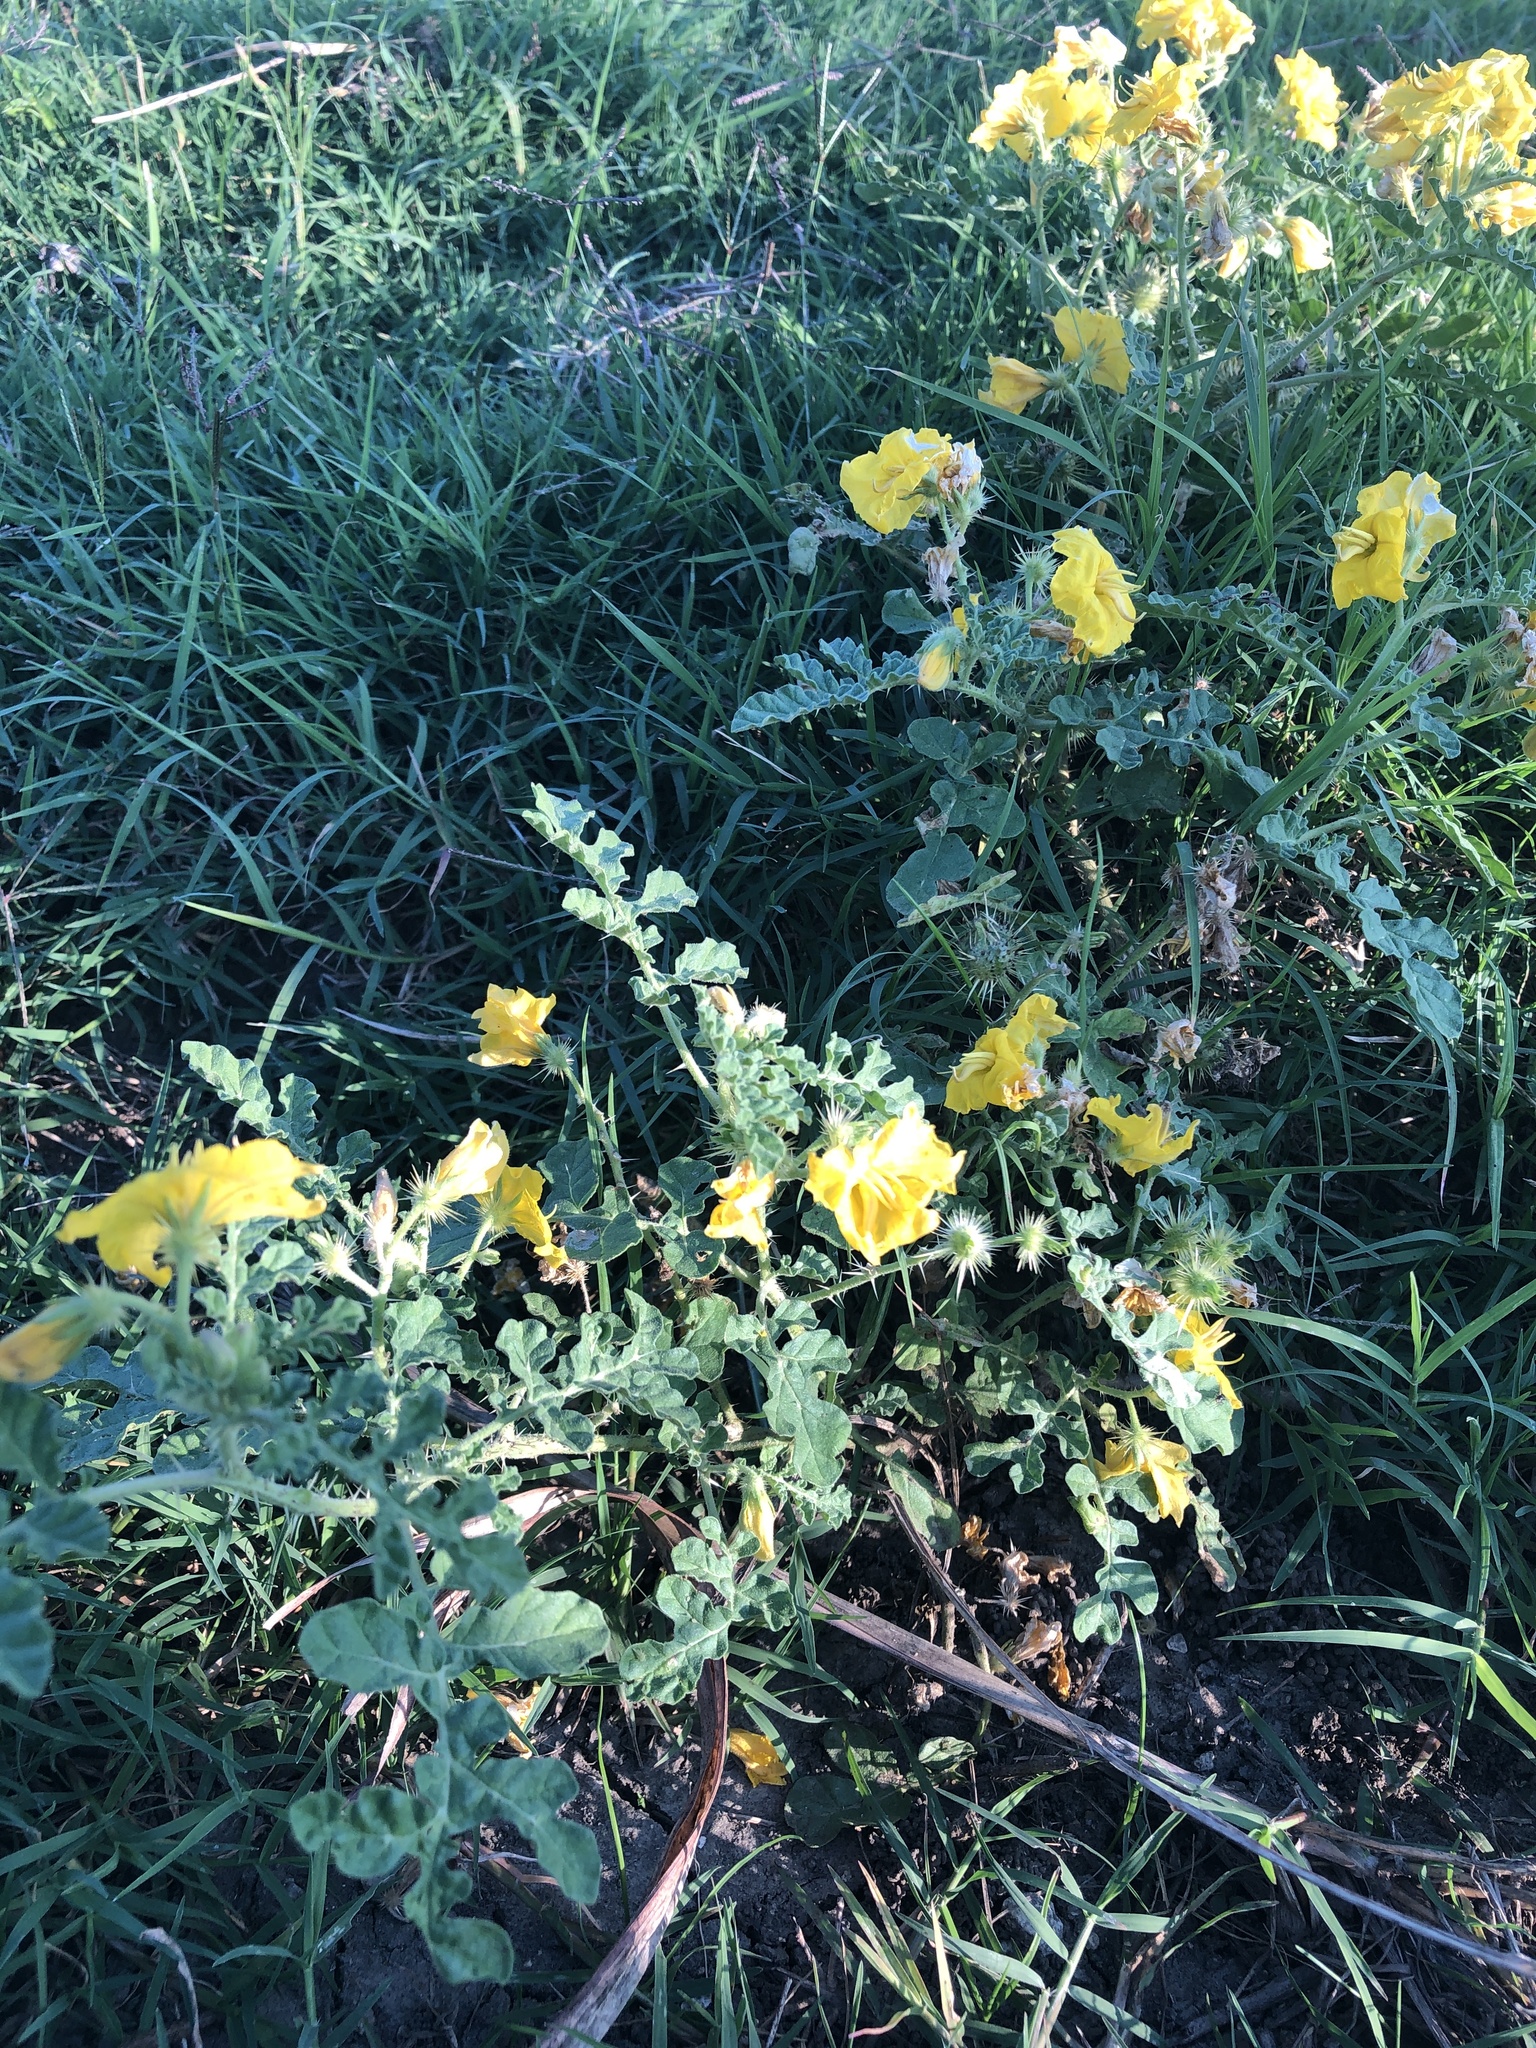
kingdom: Plantae
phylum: Tracheophyta
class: Magnoliopsida
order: Solanales
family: Solanaceae
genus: Solanum
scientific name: Solanum angustifolium
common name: Buffalobur nightshade
